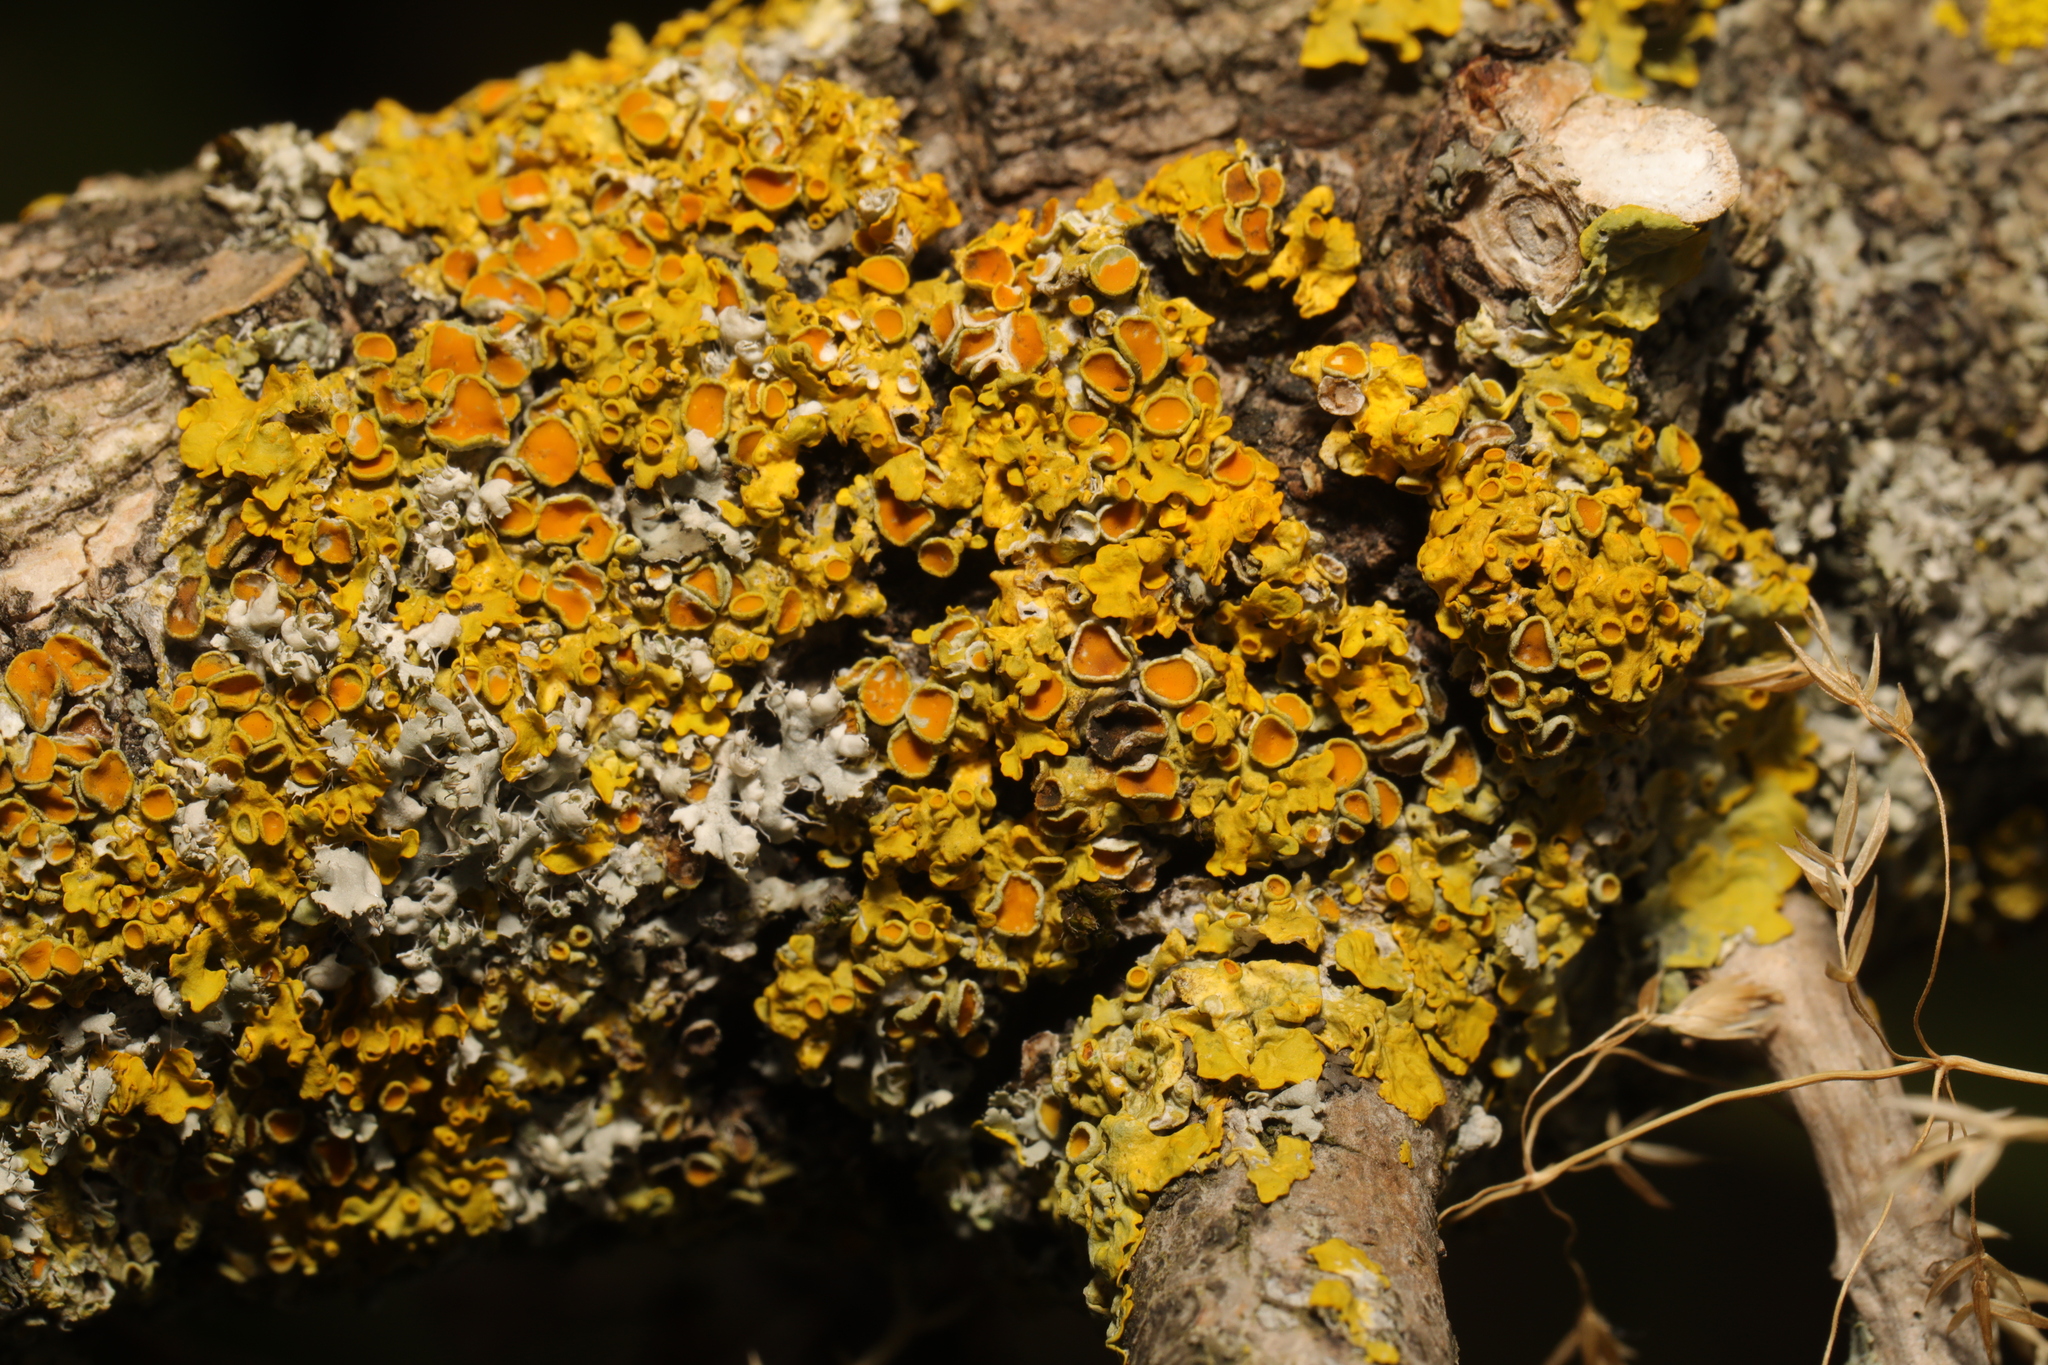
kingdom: Fungi
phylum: Ascomycota
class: Lecanoromycetes
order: Teloschistales
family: Teloschistaceae
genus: Xanthoria
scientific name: Xanthoria parietina
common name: Common orange lichen
